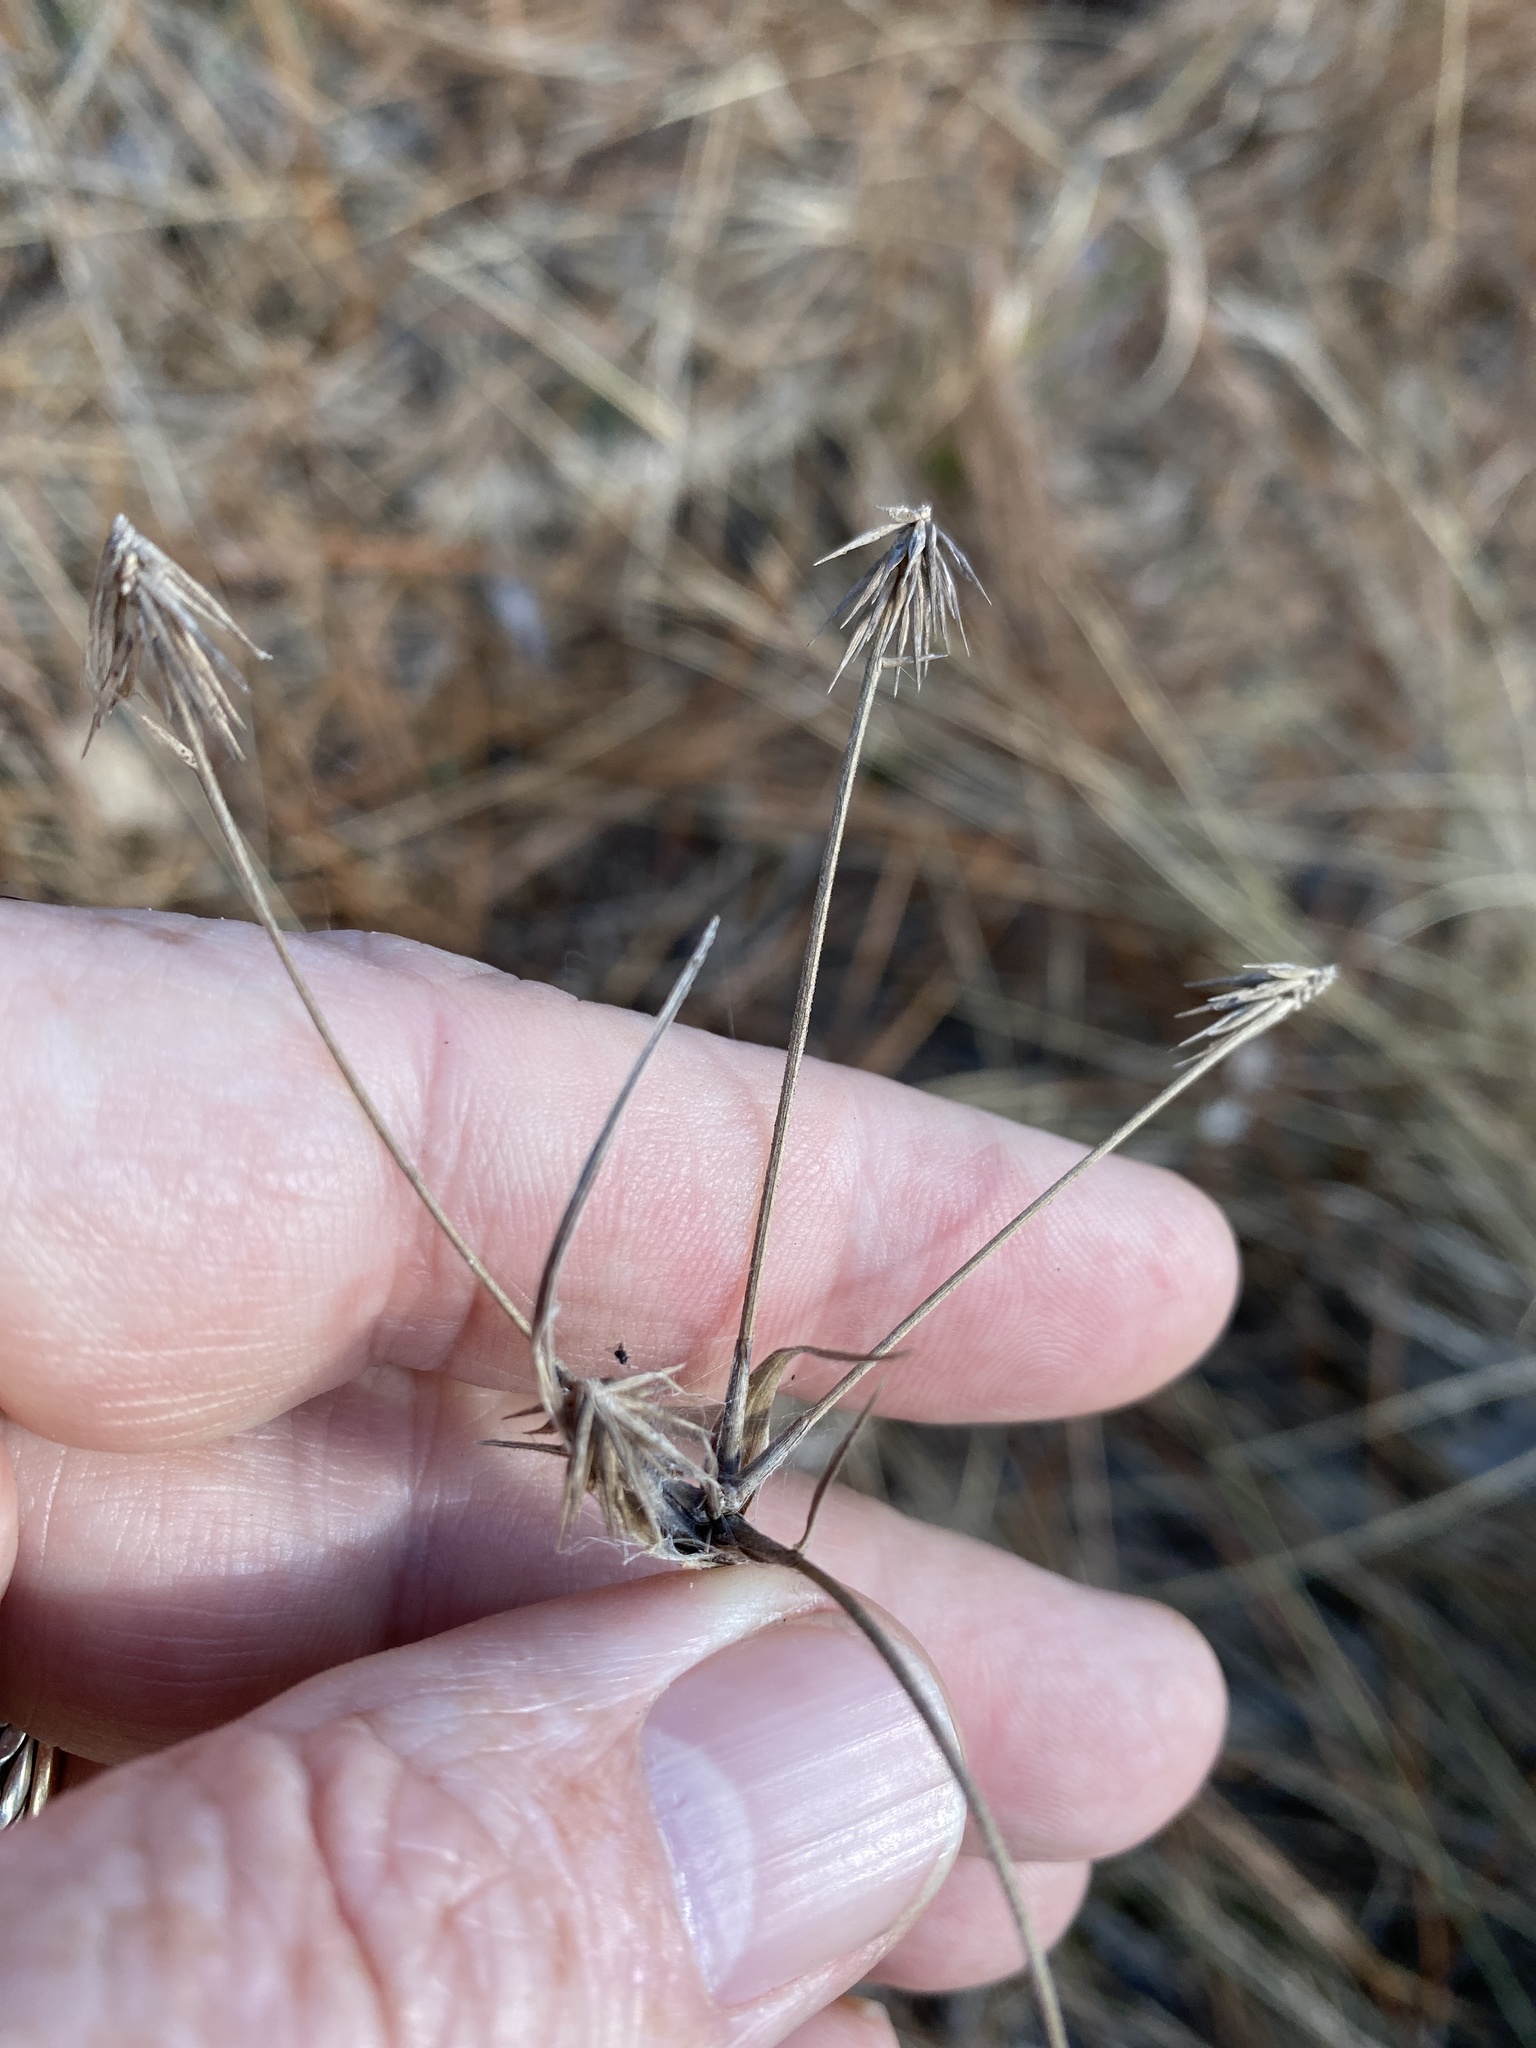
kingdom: Plantae
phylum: Tracheophyta
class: Liliopsida
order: Poales
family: Cyperaceae
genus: Cyperus
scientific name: Cyperus plukenetii
